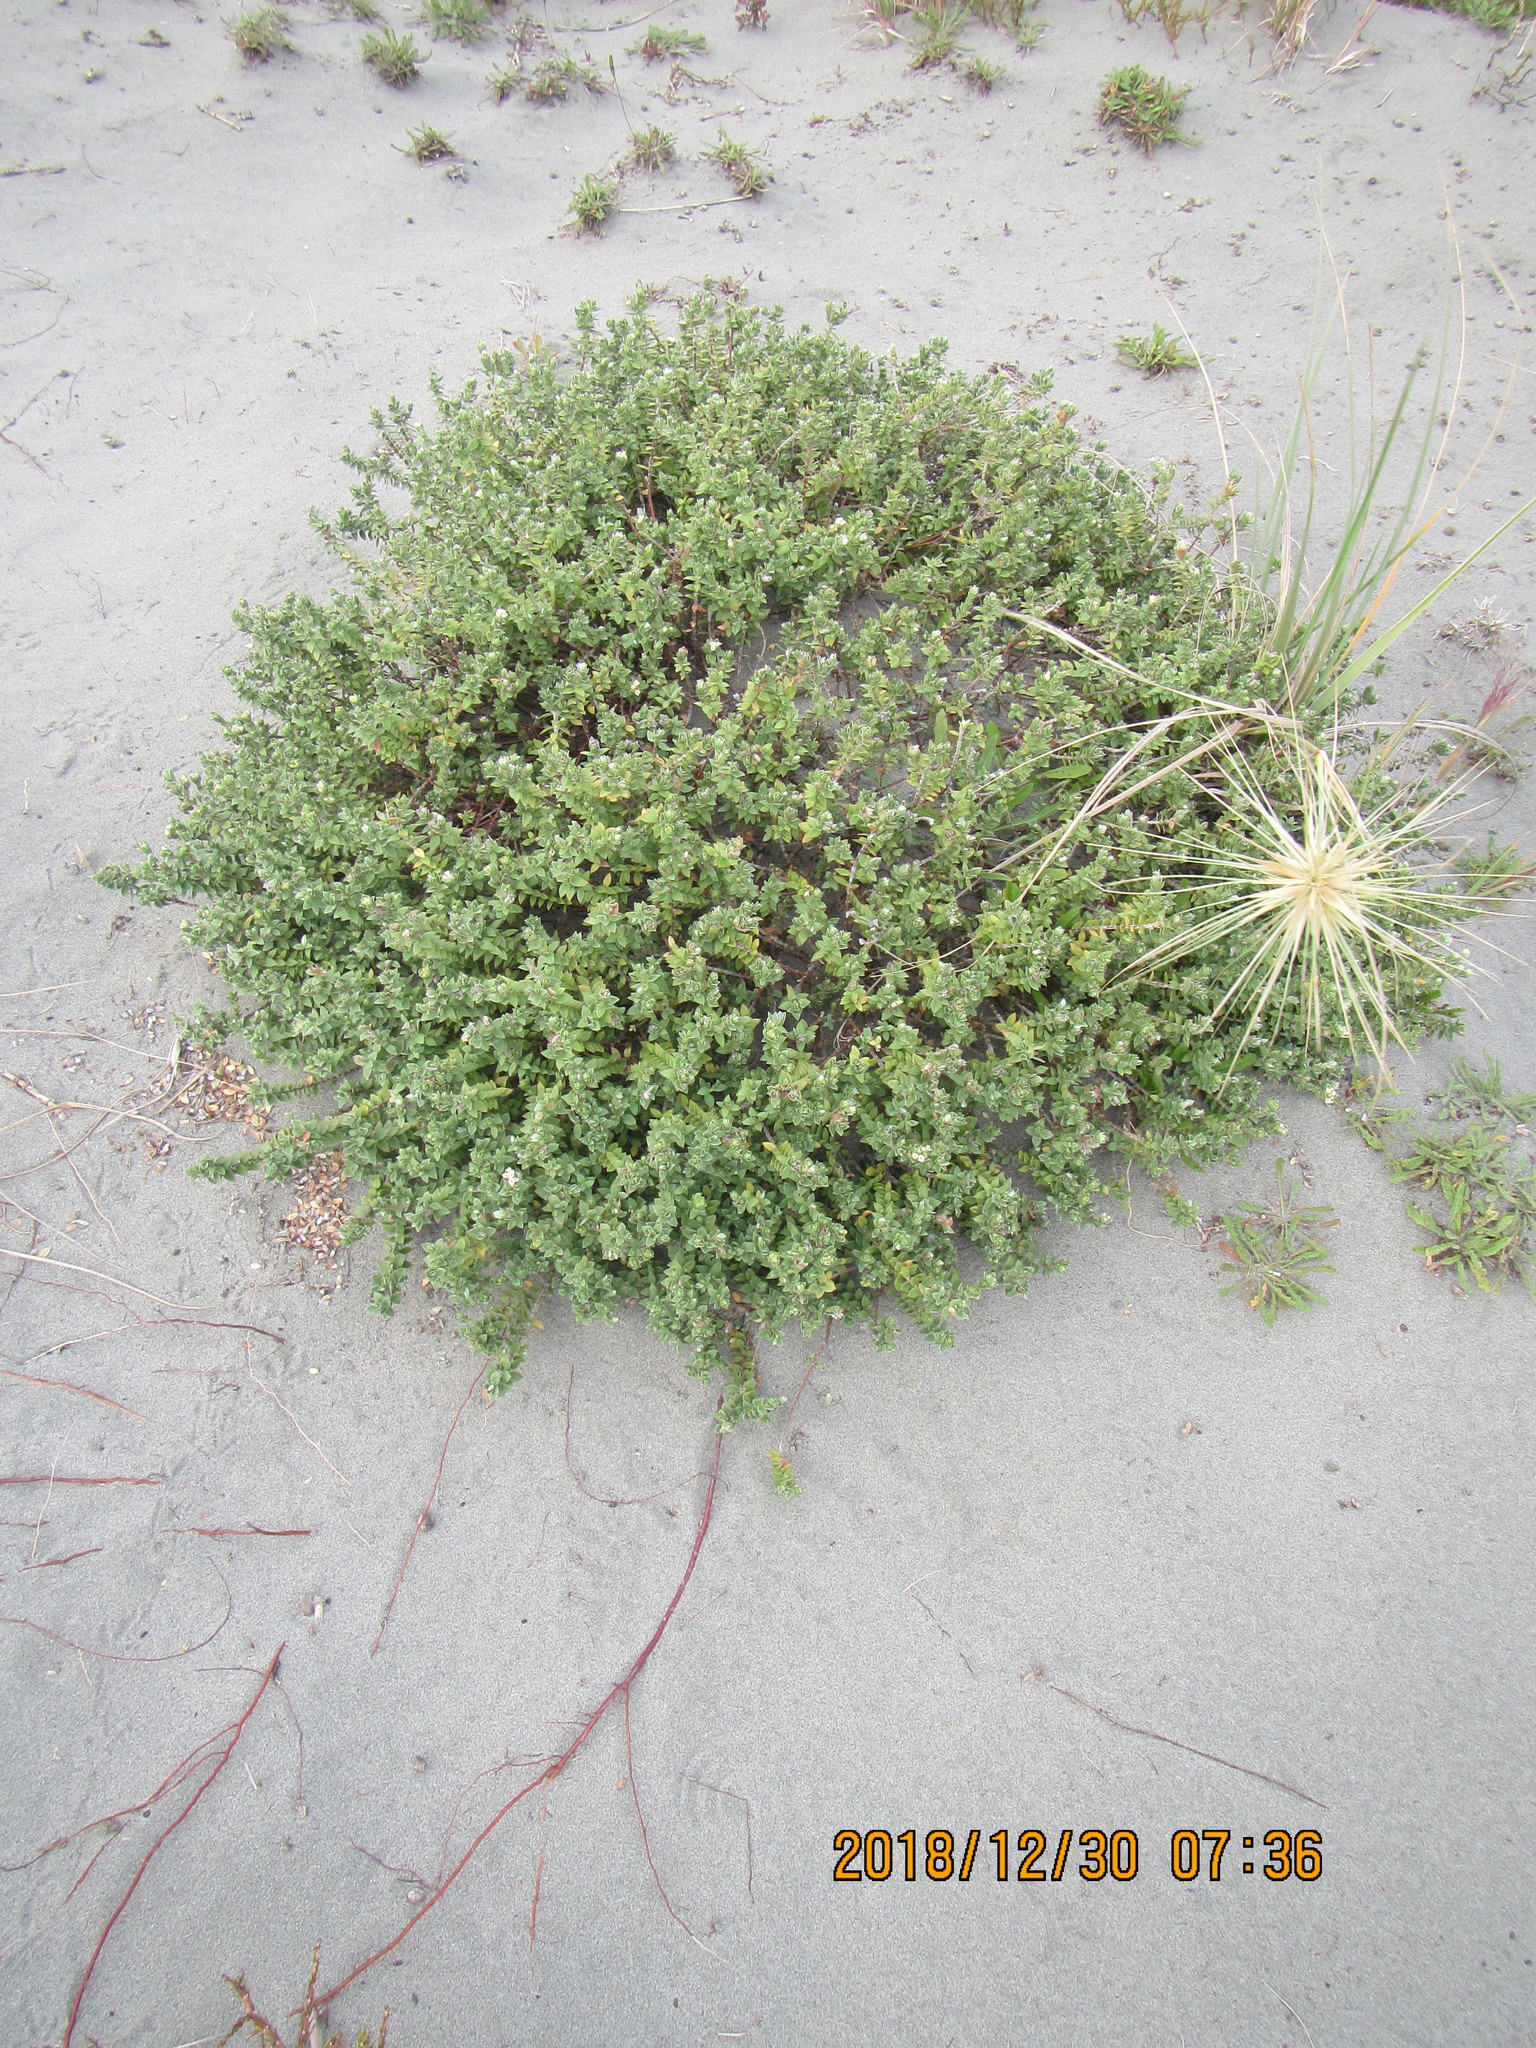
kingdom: Plantae
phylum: Tracheophyta
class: Magnoliopsida
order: Malvales
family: Thymelaeaceae
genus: Pimelea
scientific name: Pimelea villosa
